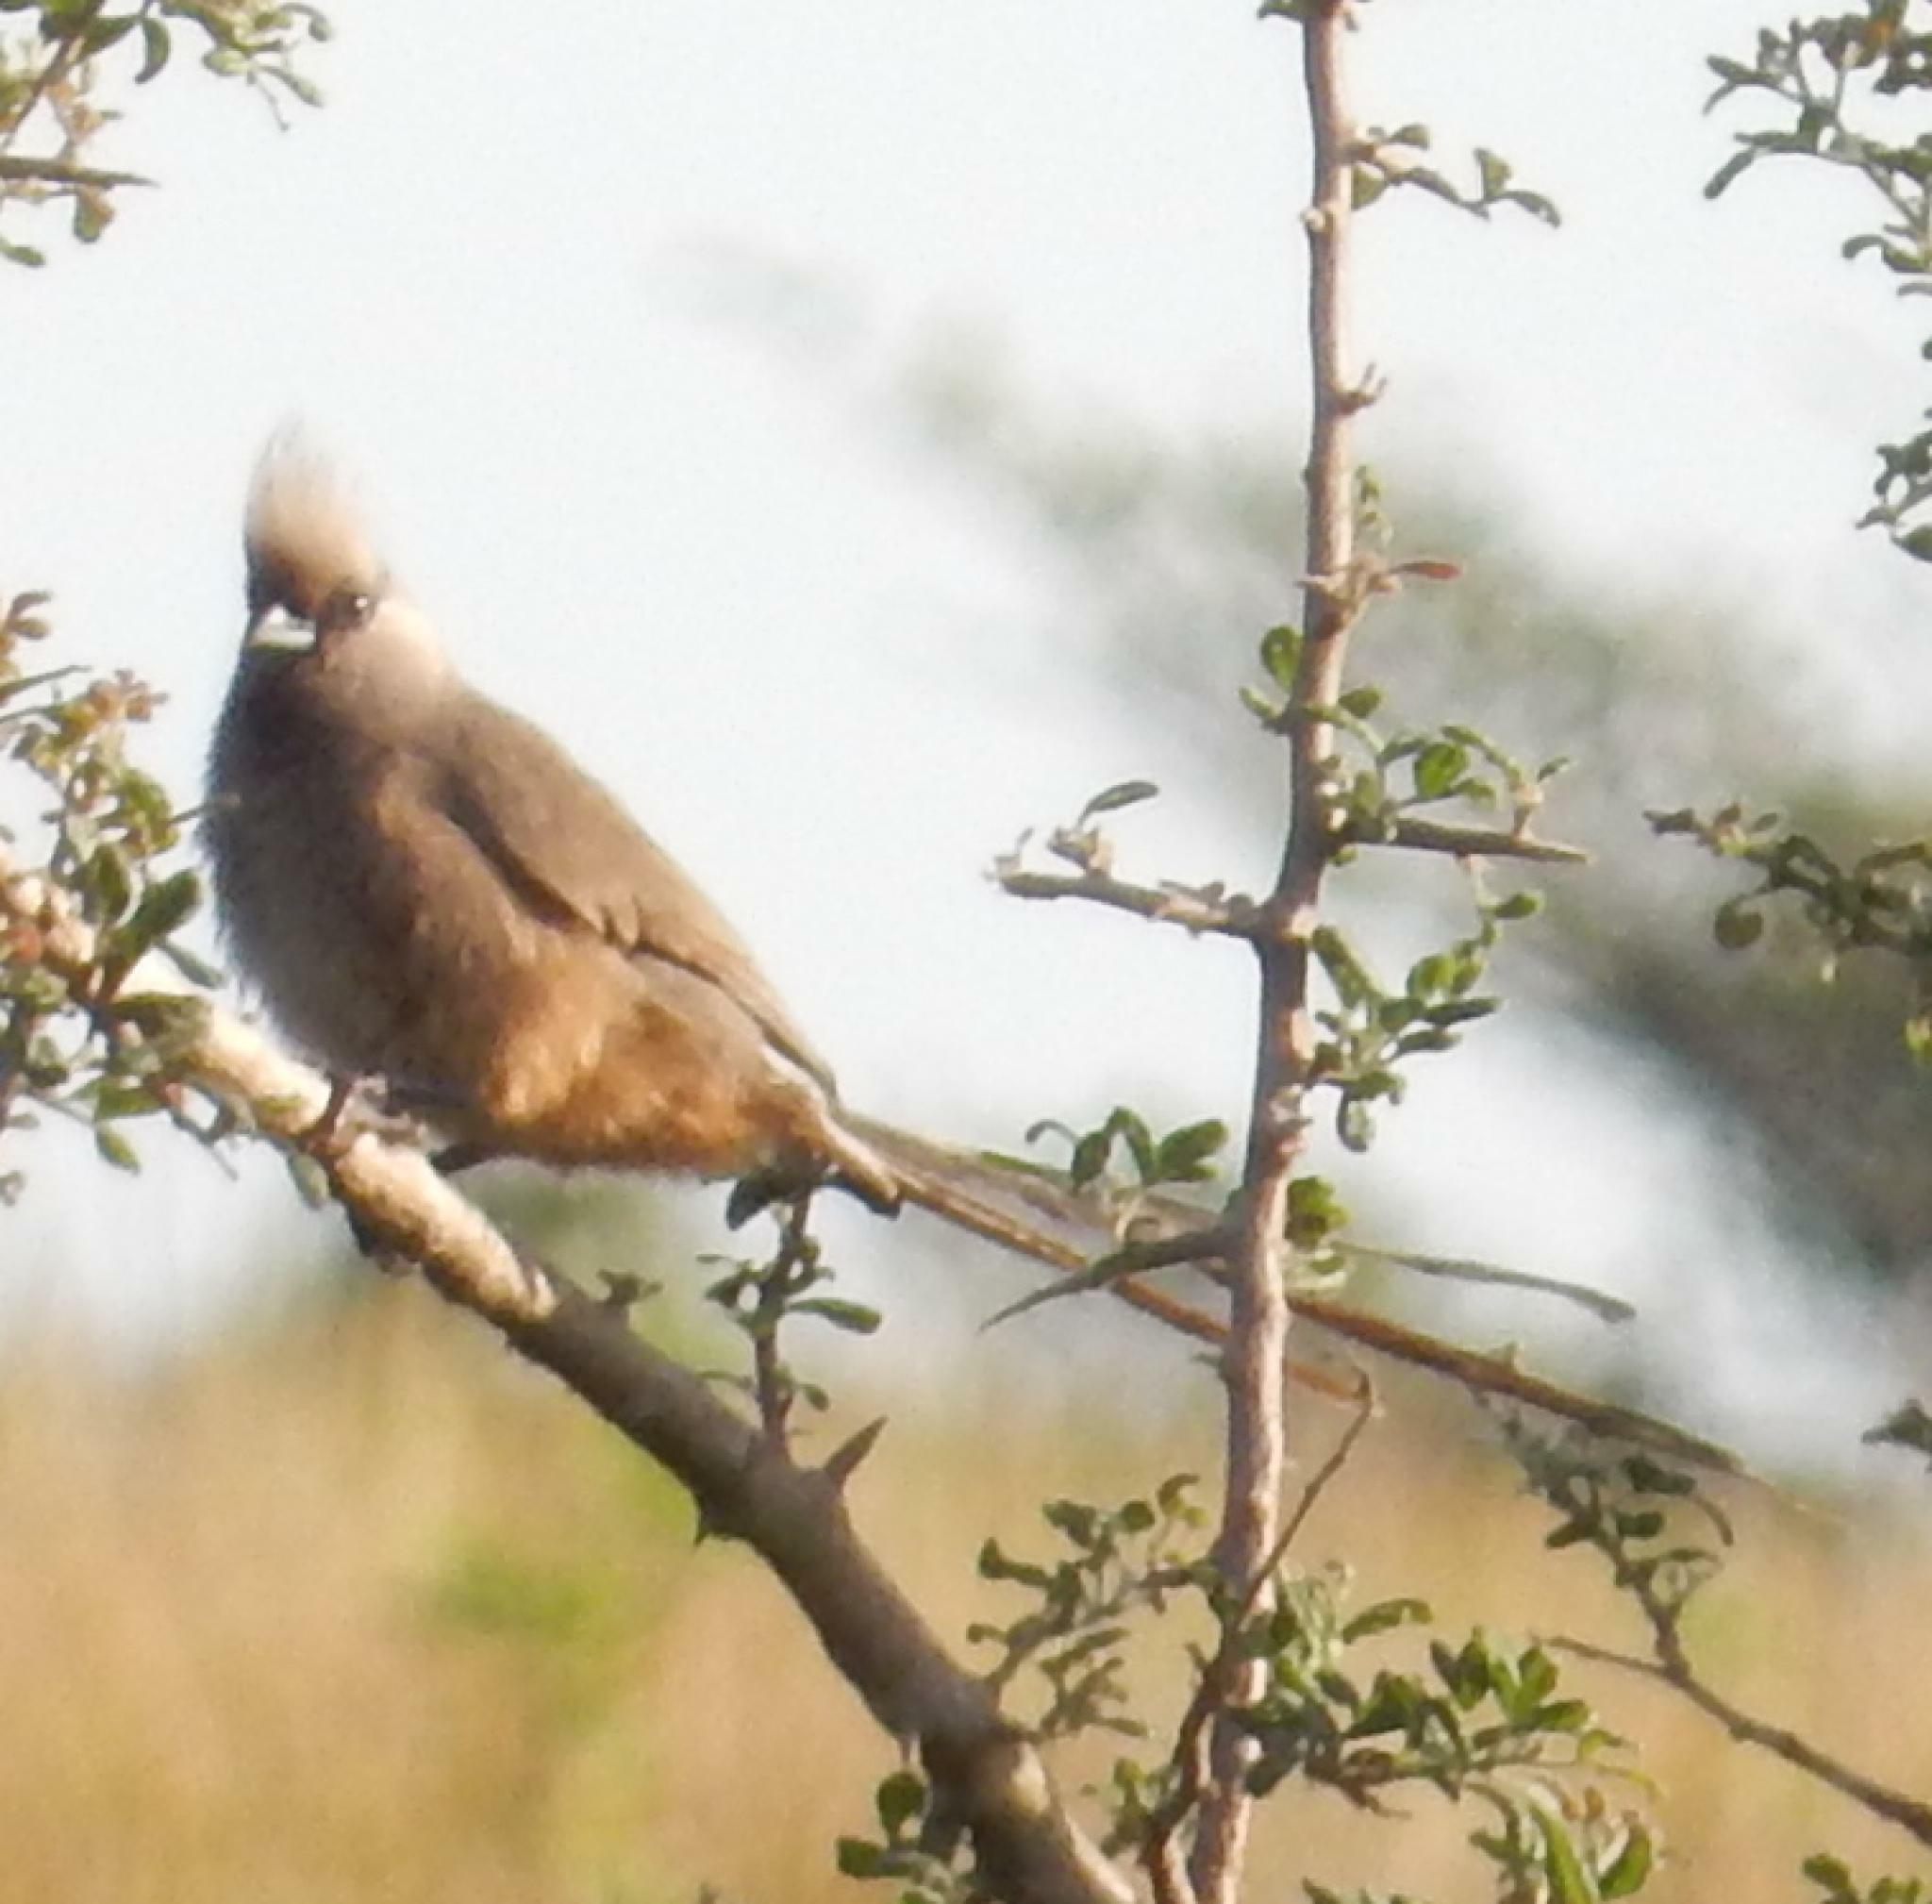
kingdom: Animalia
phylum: Chordata
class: Aves
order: Coliiformes
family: Coliidae
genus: Colius
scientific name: Colius striatus
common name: Speckled mousebird
